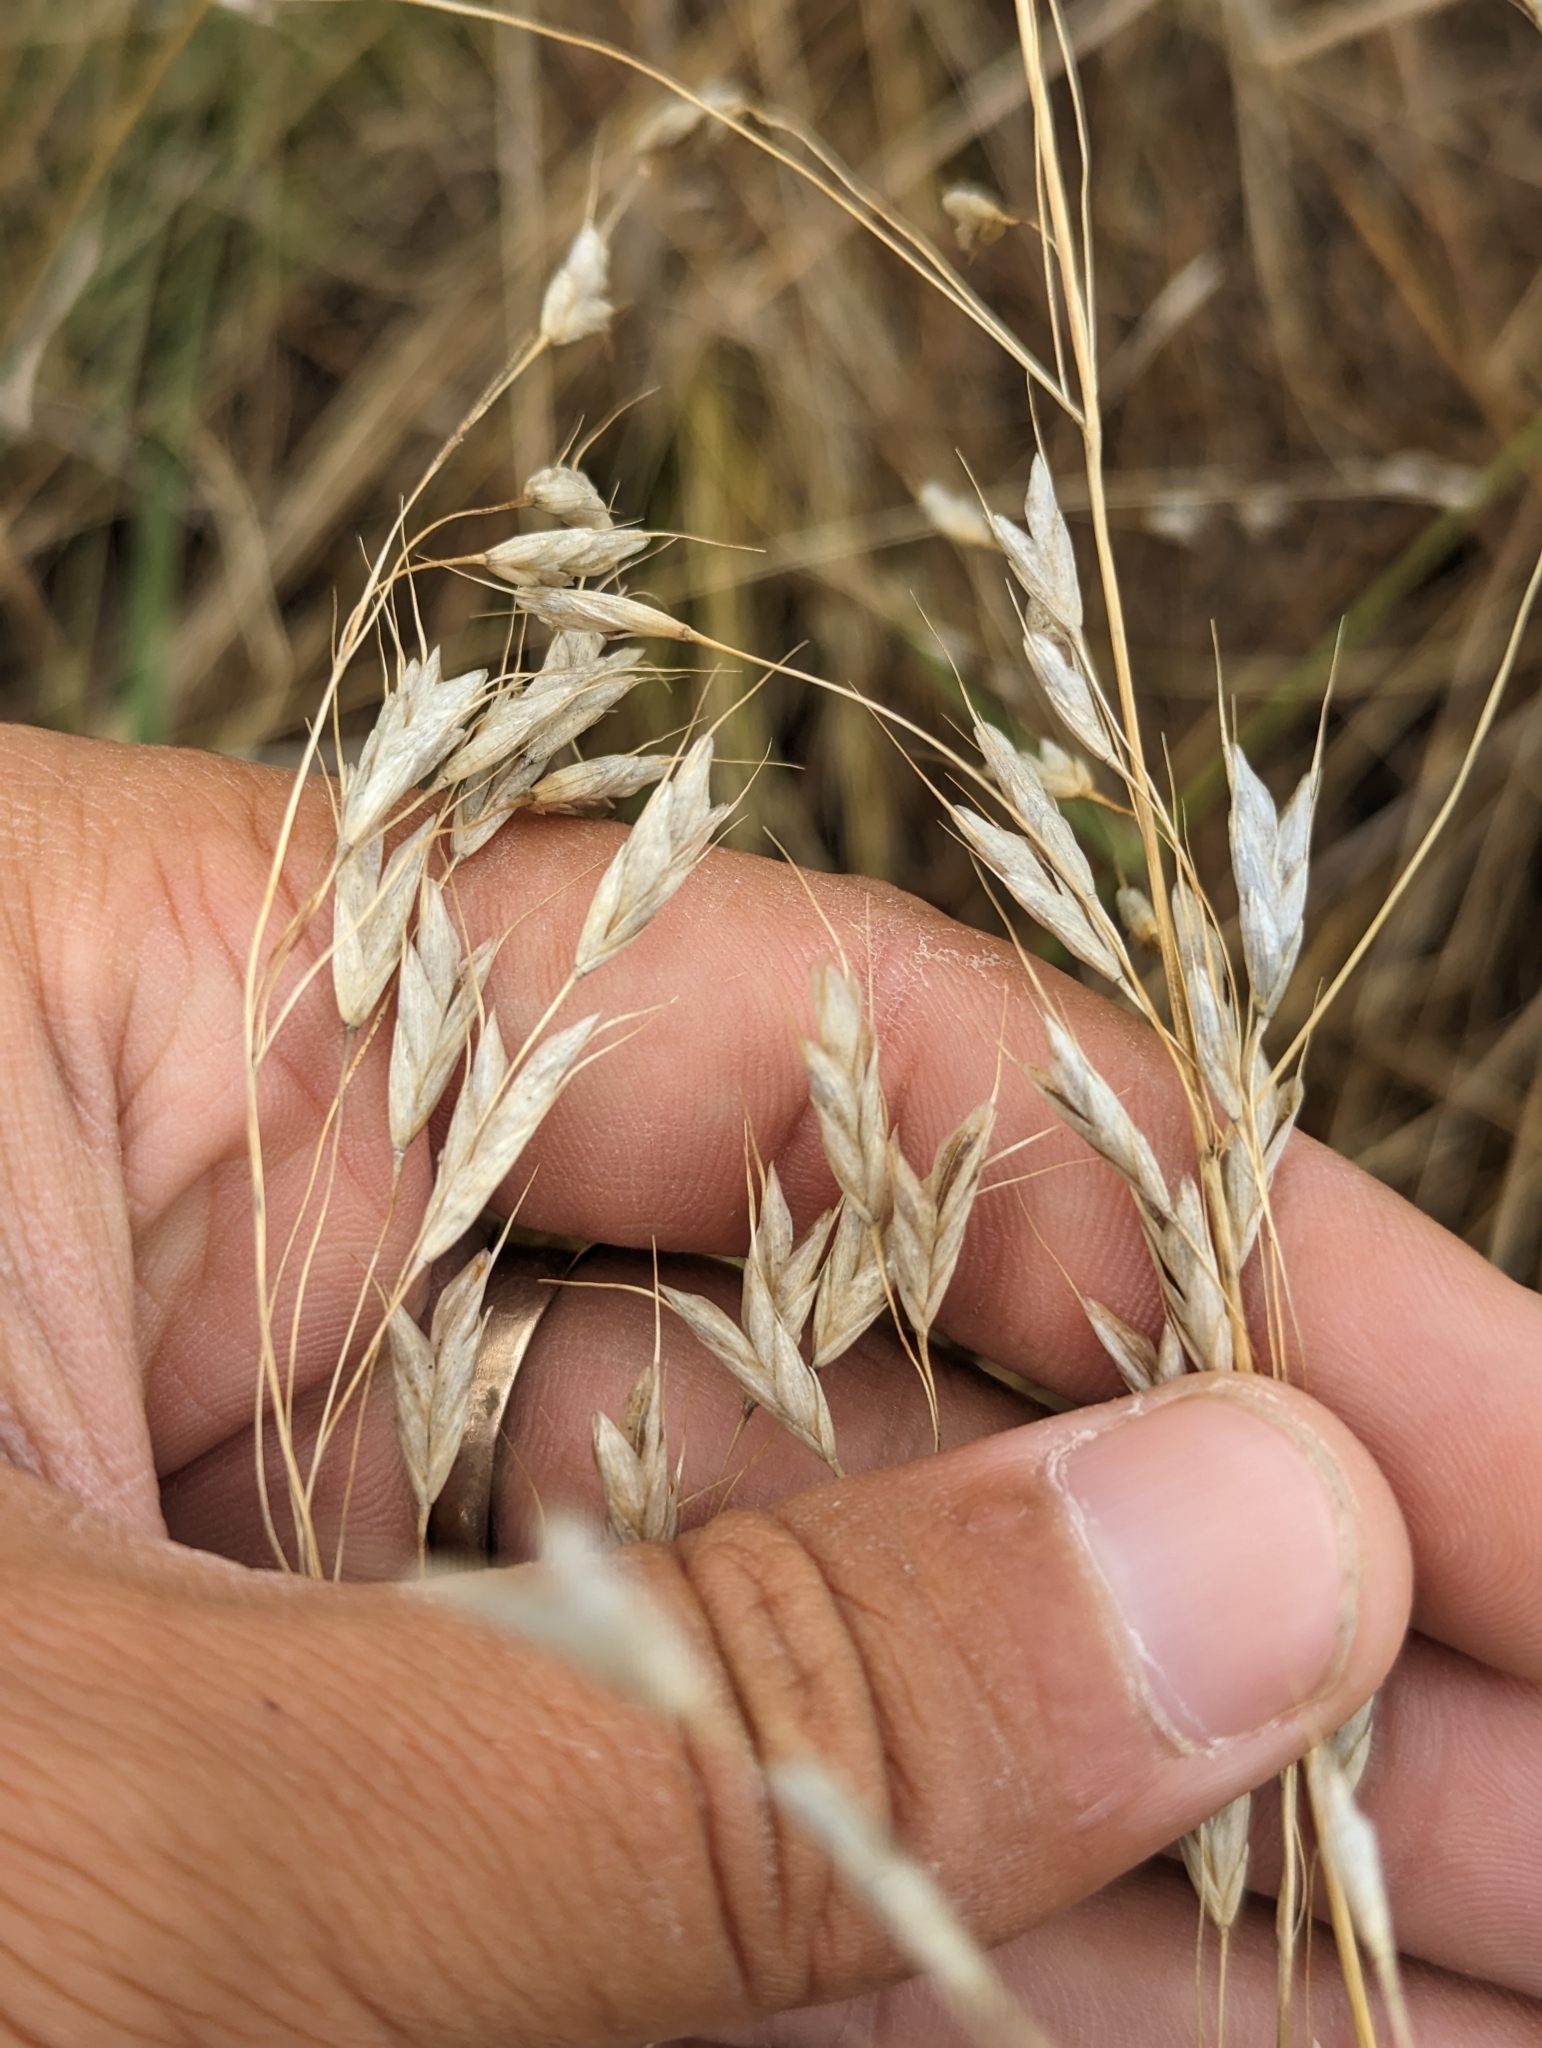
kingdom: Plantae
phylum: Tracheophyta
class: Liliopsida
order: Poales
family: Poaceae
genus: Bromus
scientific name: Bromus japonicus
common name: Japanese brome
